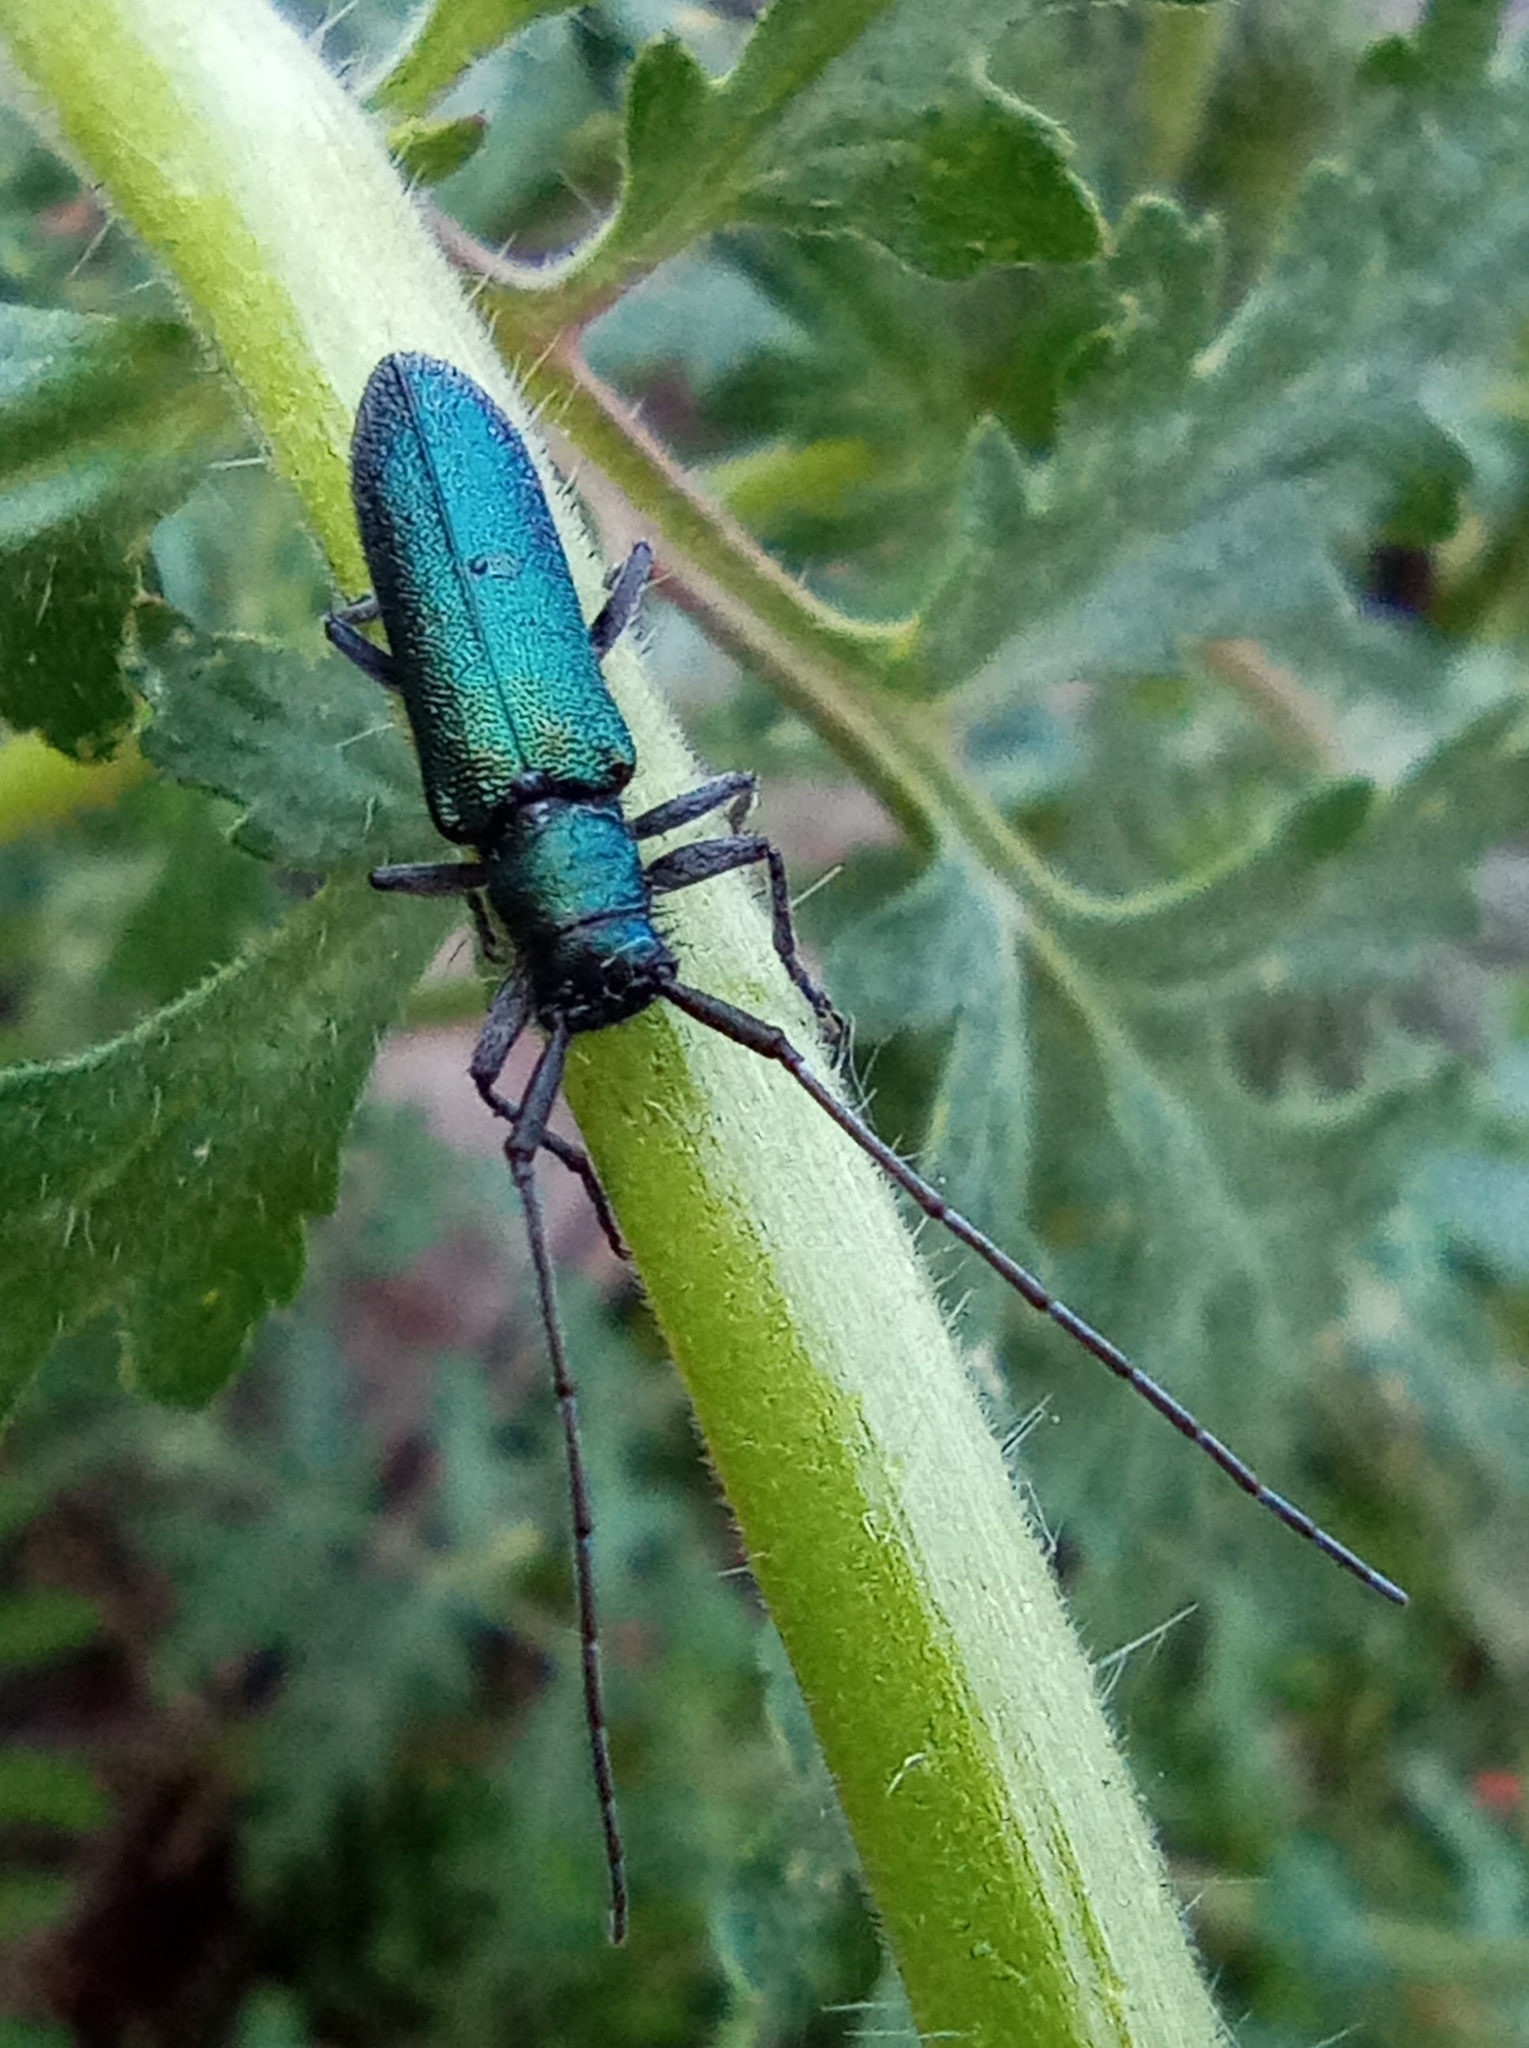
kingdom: Animalia
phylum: Arthropoda
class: Insecta
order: Coleoptera
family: Cerambycidae
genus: Agapanthia
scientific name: Agapanthia intermedia
